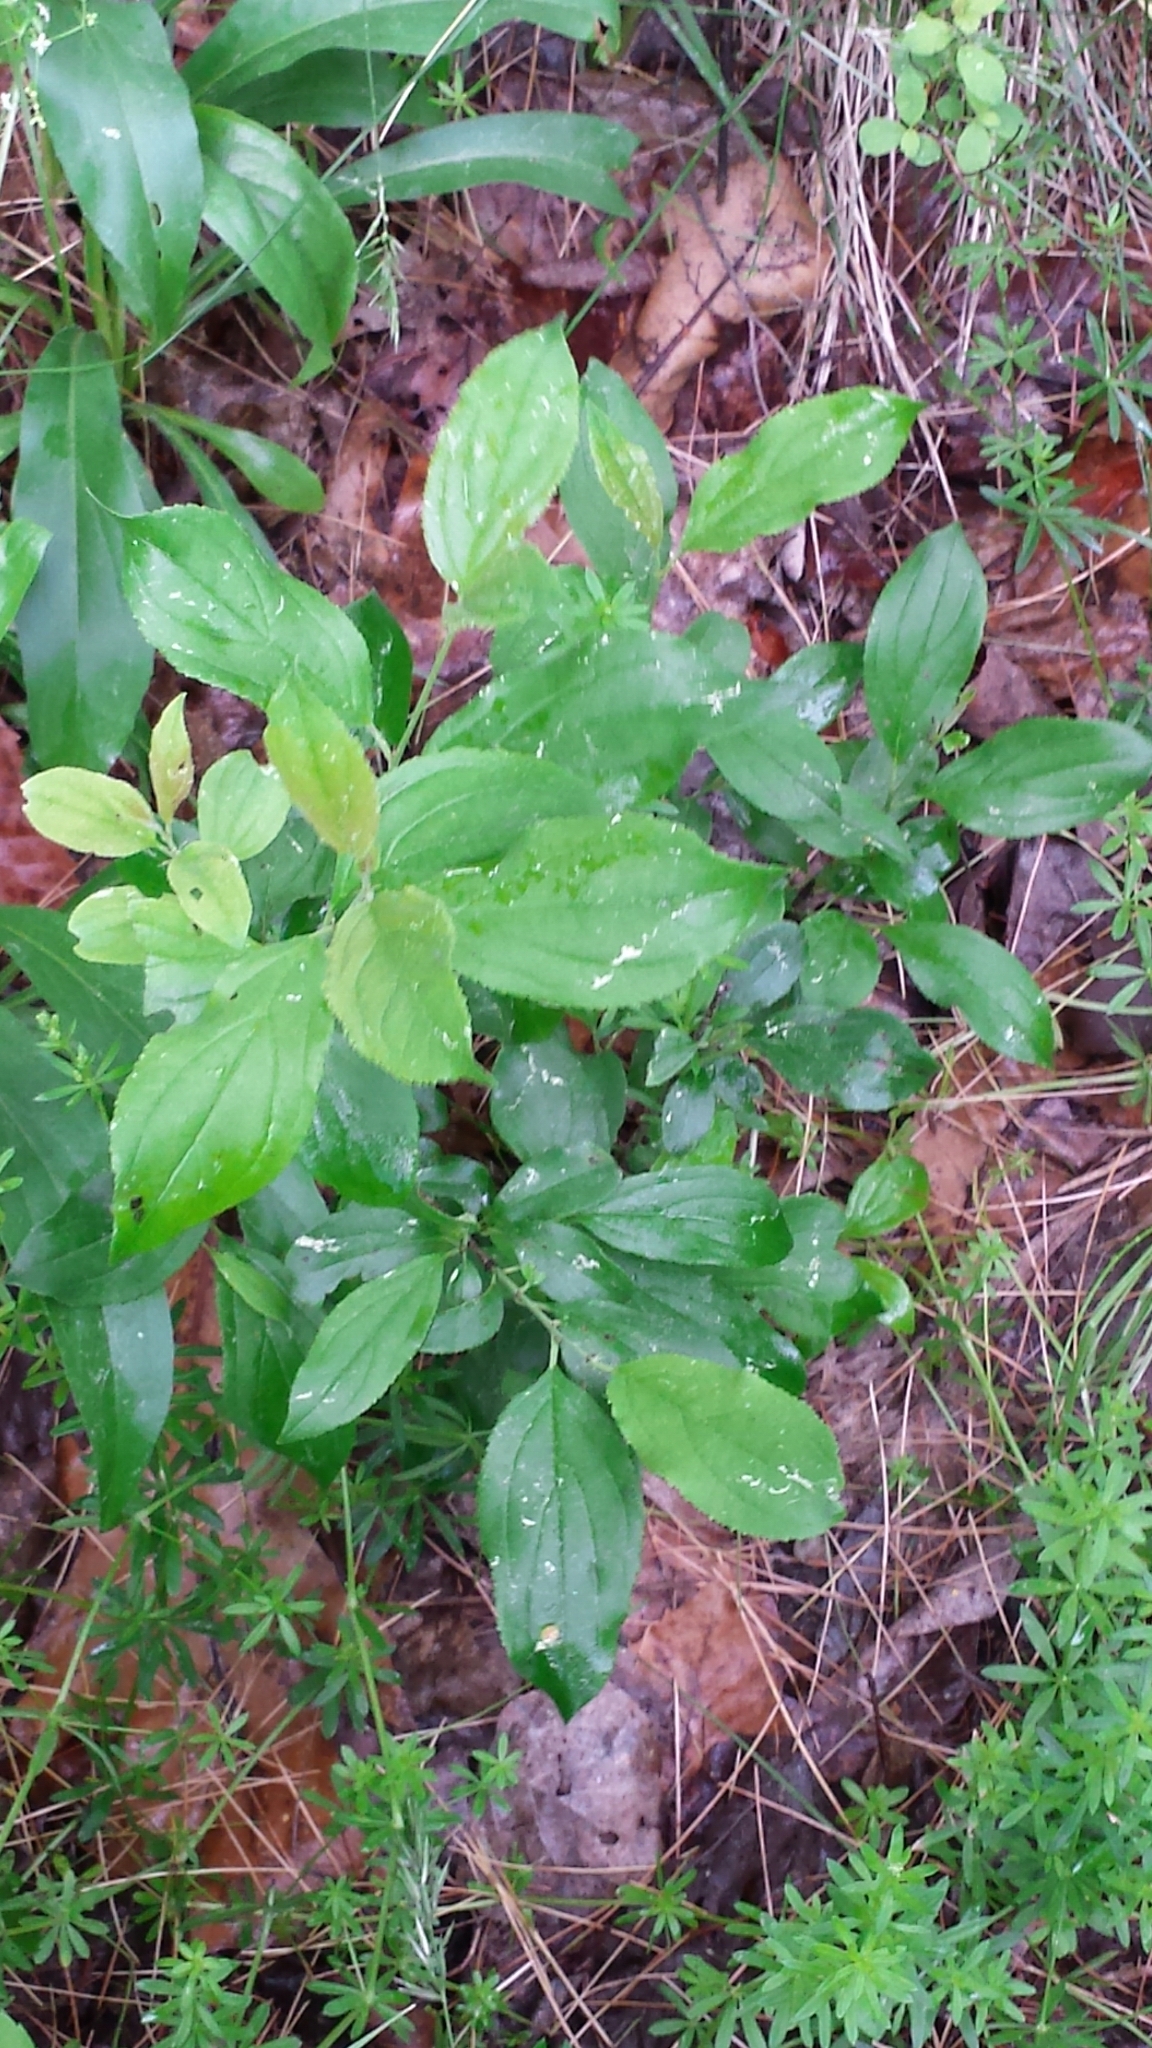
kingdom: Plantae
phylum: Tracheophyta
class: Magnoliopsida
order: Rosales
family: Rhamnaceae
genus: Rhamnus
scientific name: Rhamnus cathartica
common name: Common buckthorn
